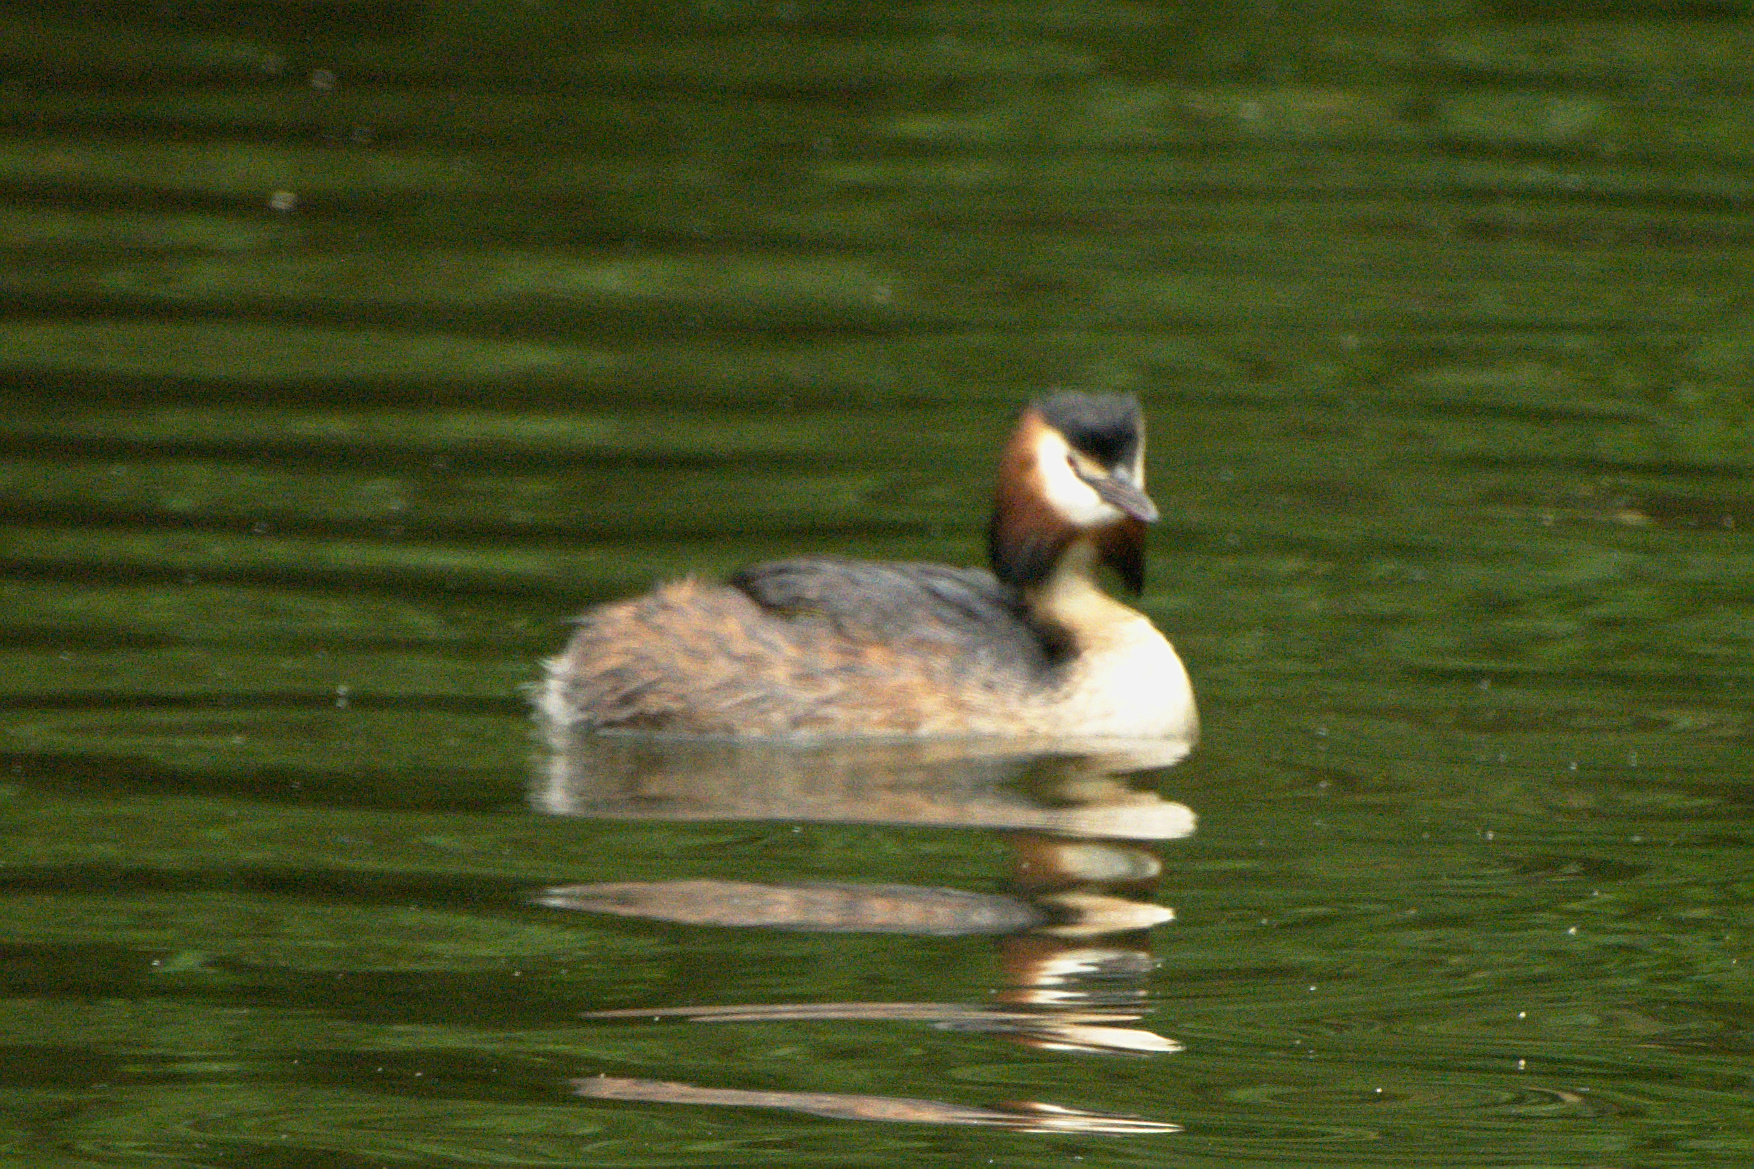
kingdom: Animalia
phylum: Chordata
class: Aves
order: Podicipediformes
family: Podicipedidae
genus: Podiceps
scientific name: Podiceps cristatus
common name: Great crested grebe
